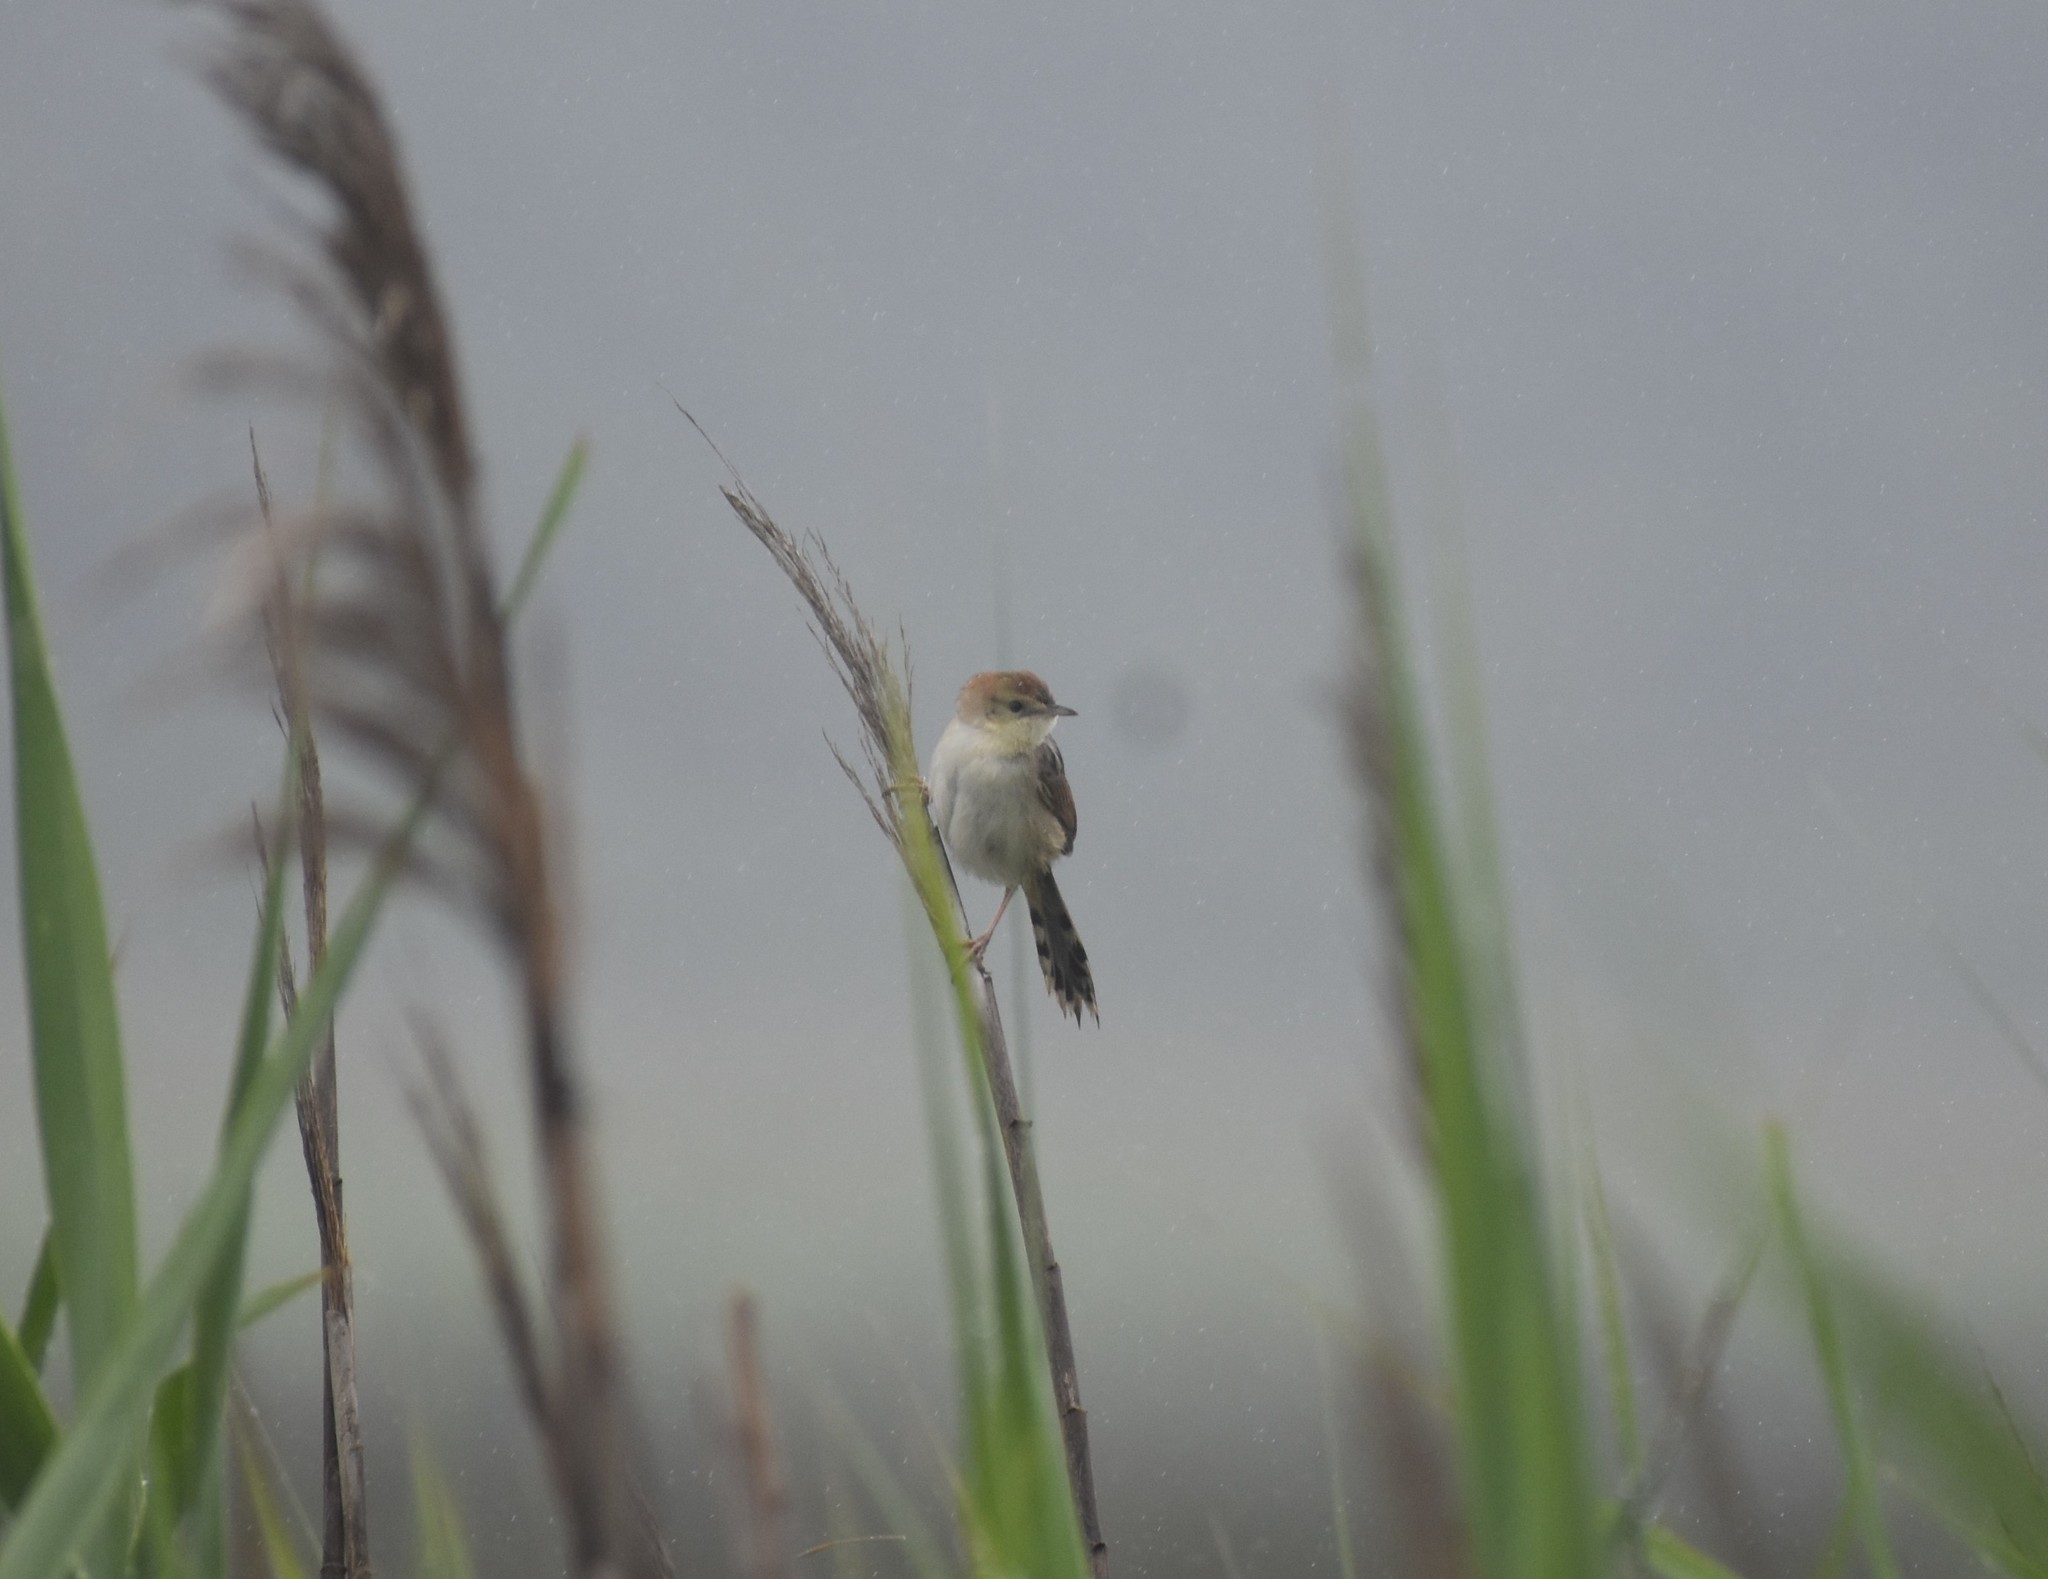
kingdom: Animalia
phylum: Chordata
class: Aves
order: Passeriformes
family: Cisticolidae
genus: Cisticola
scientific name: Cisticola tinniens
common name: Levaillant's cisticola
